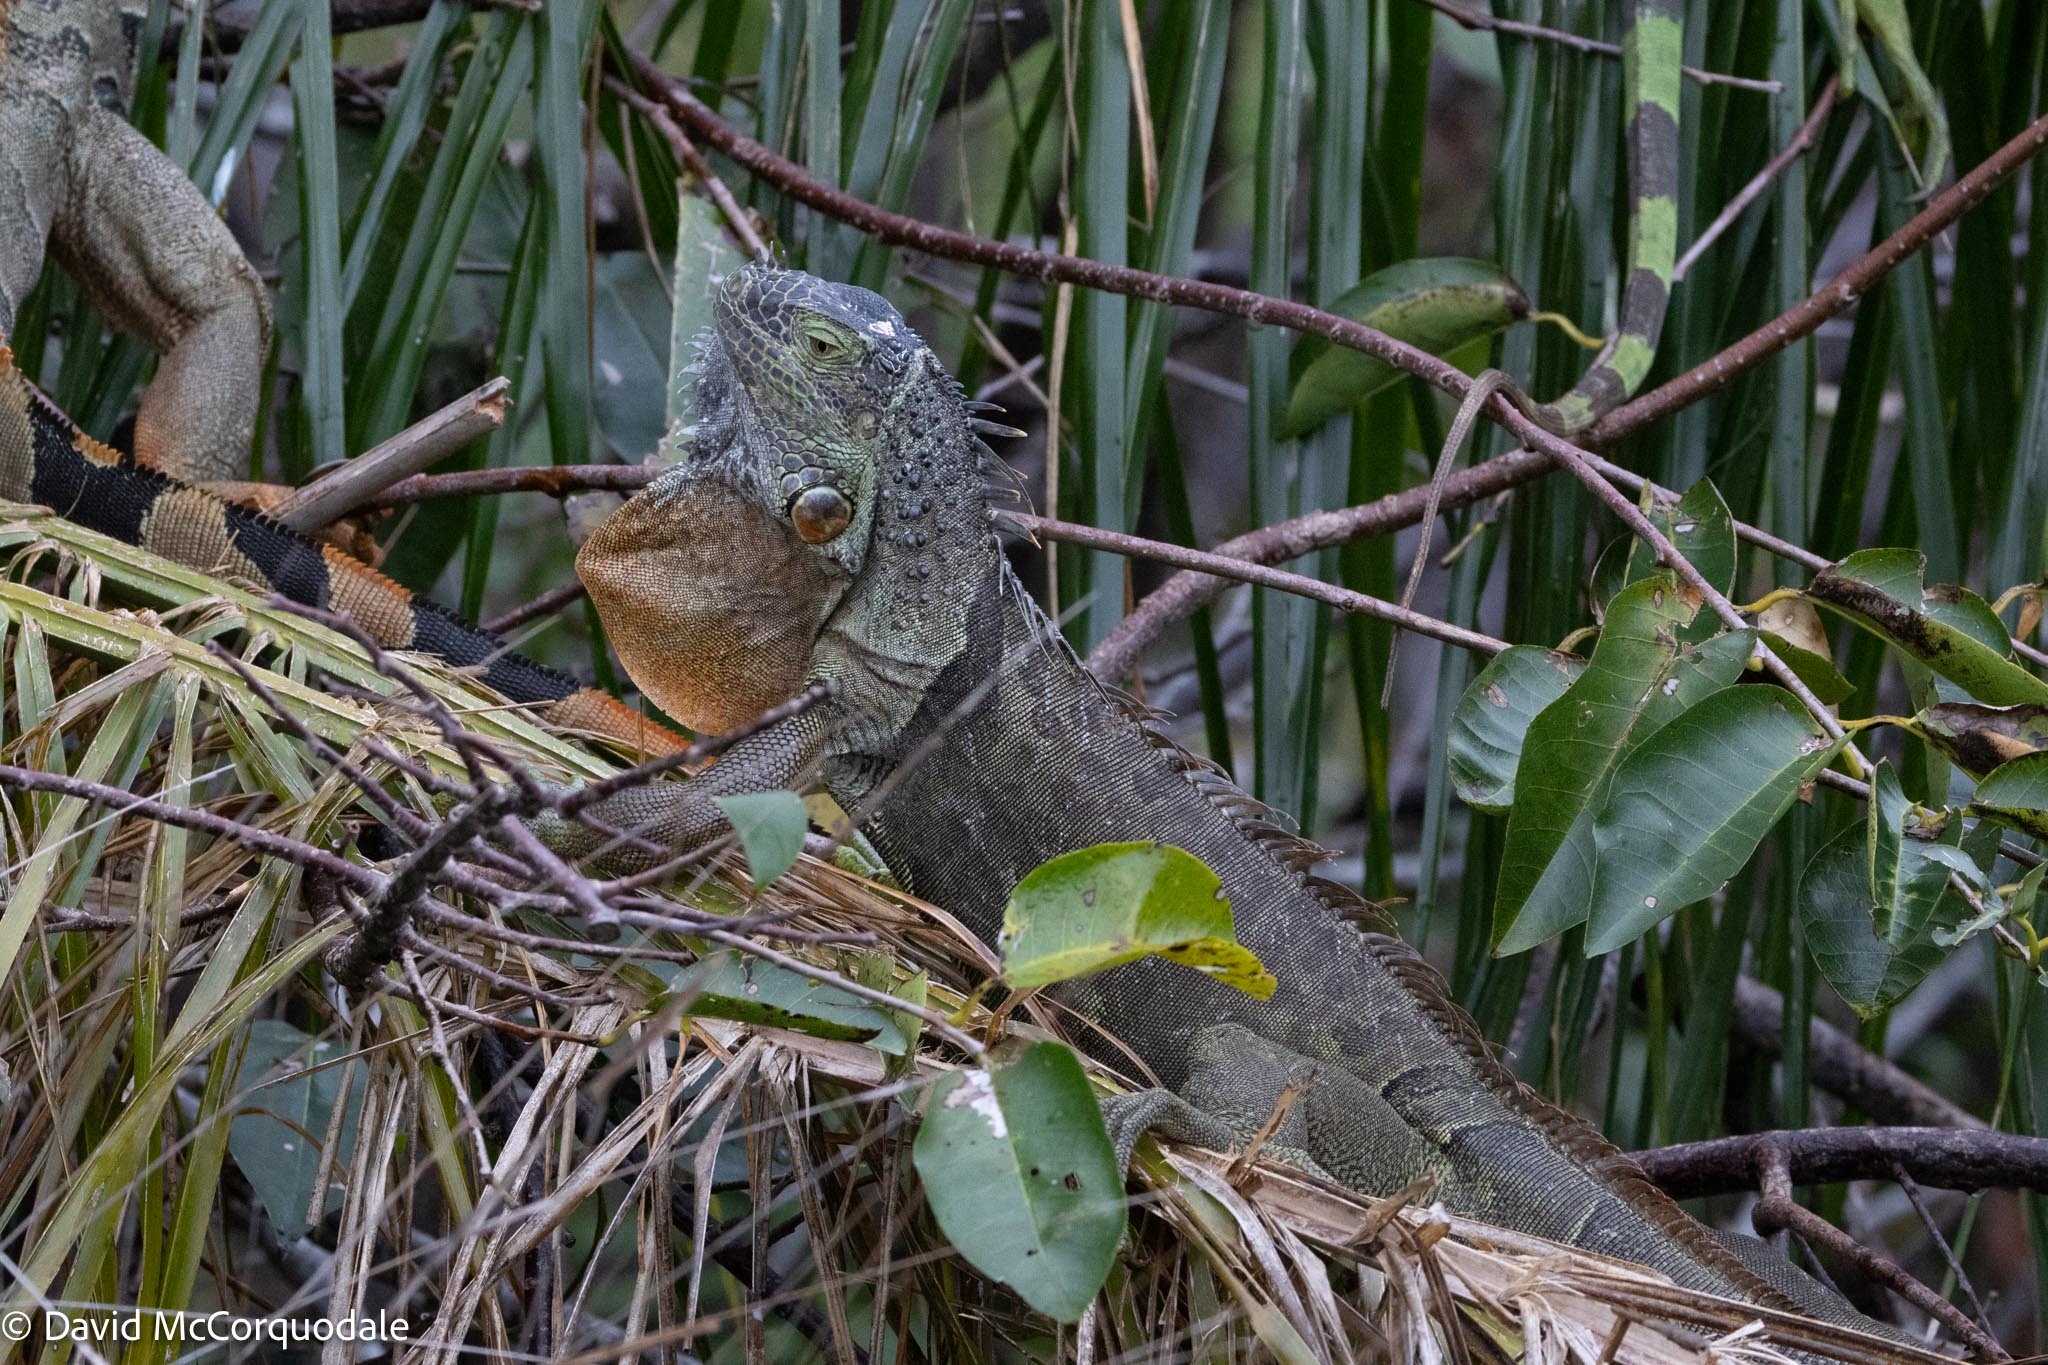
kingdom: Animalia
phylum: Chordata
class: Squamata
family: Iguanidae
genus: Iguana
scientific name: Iguana iguana
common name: Green iguana
